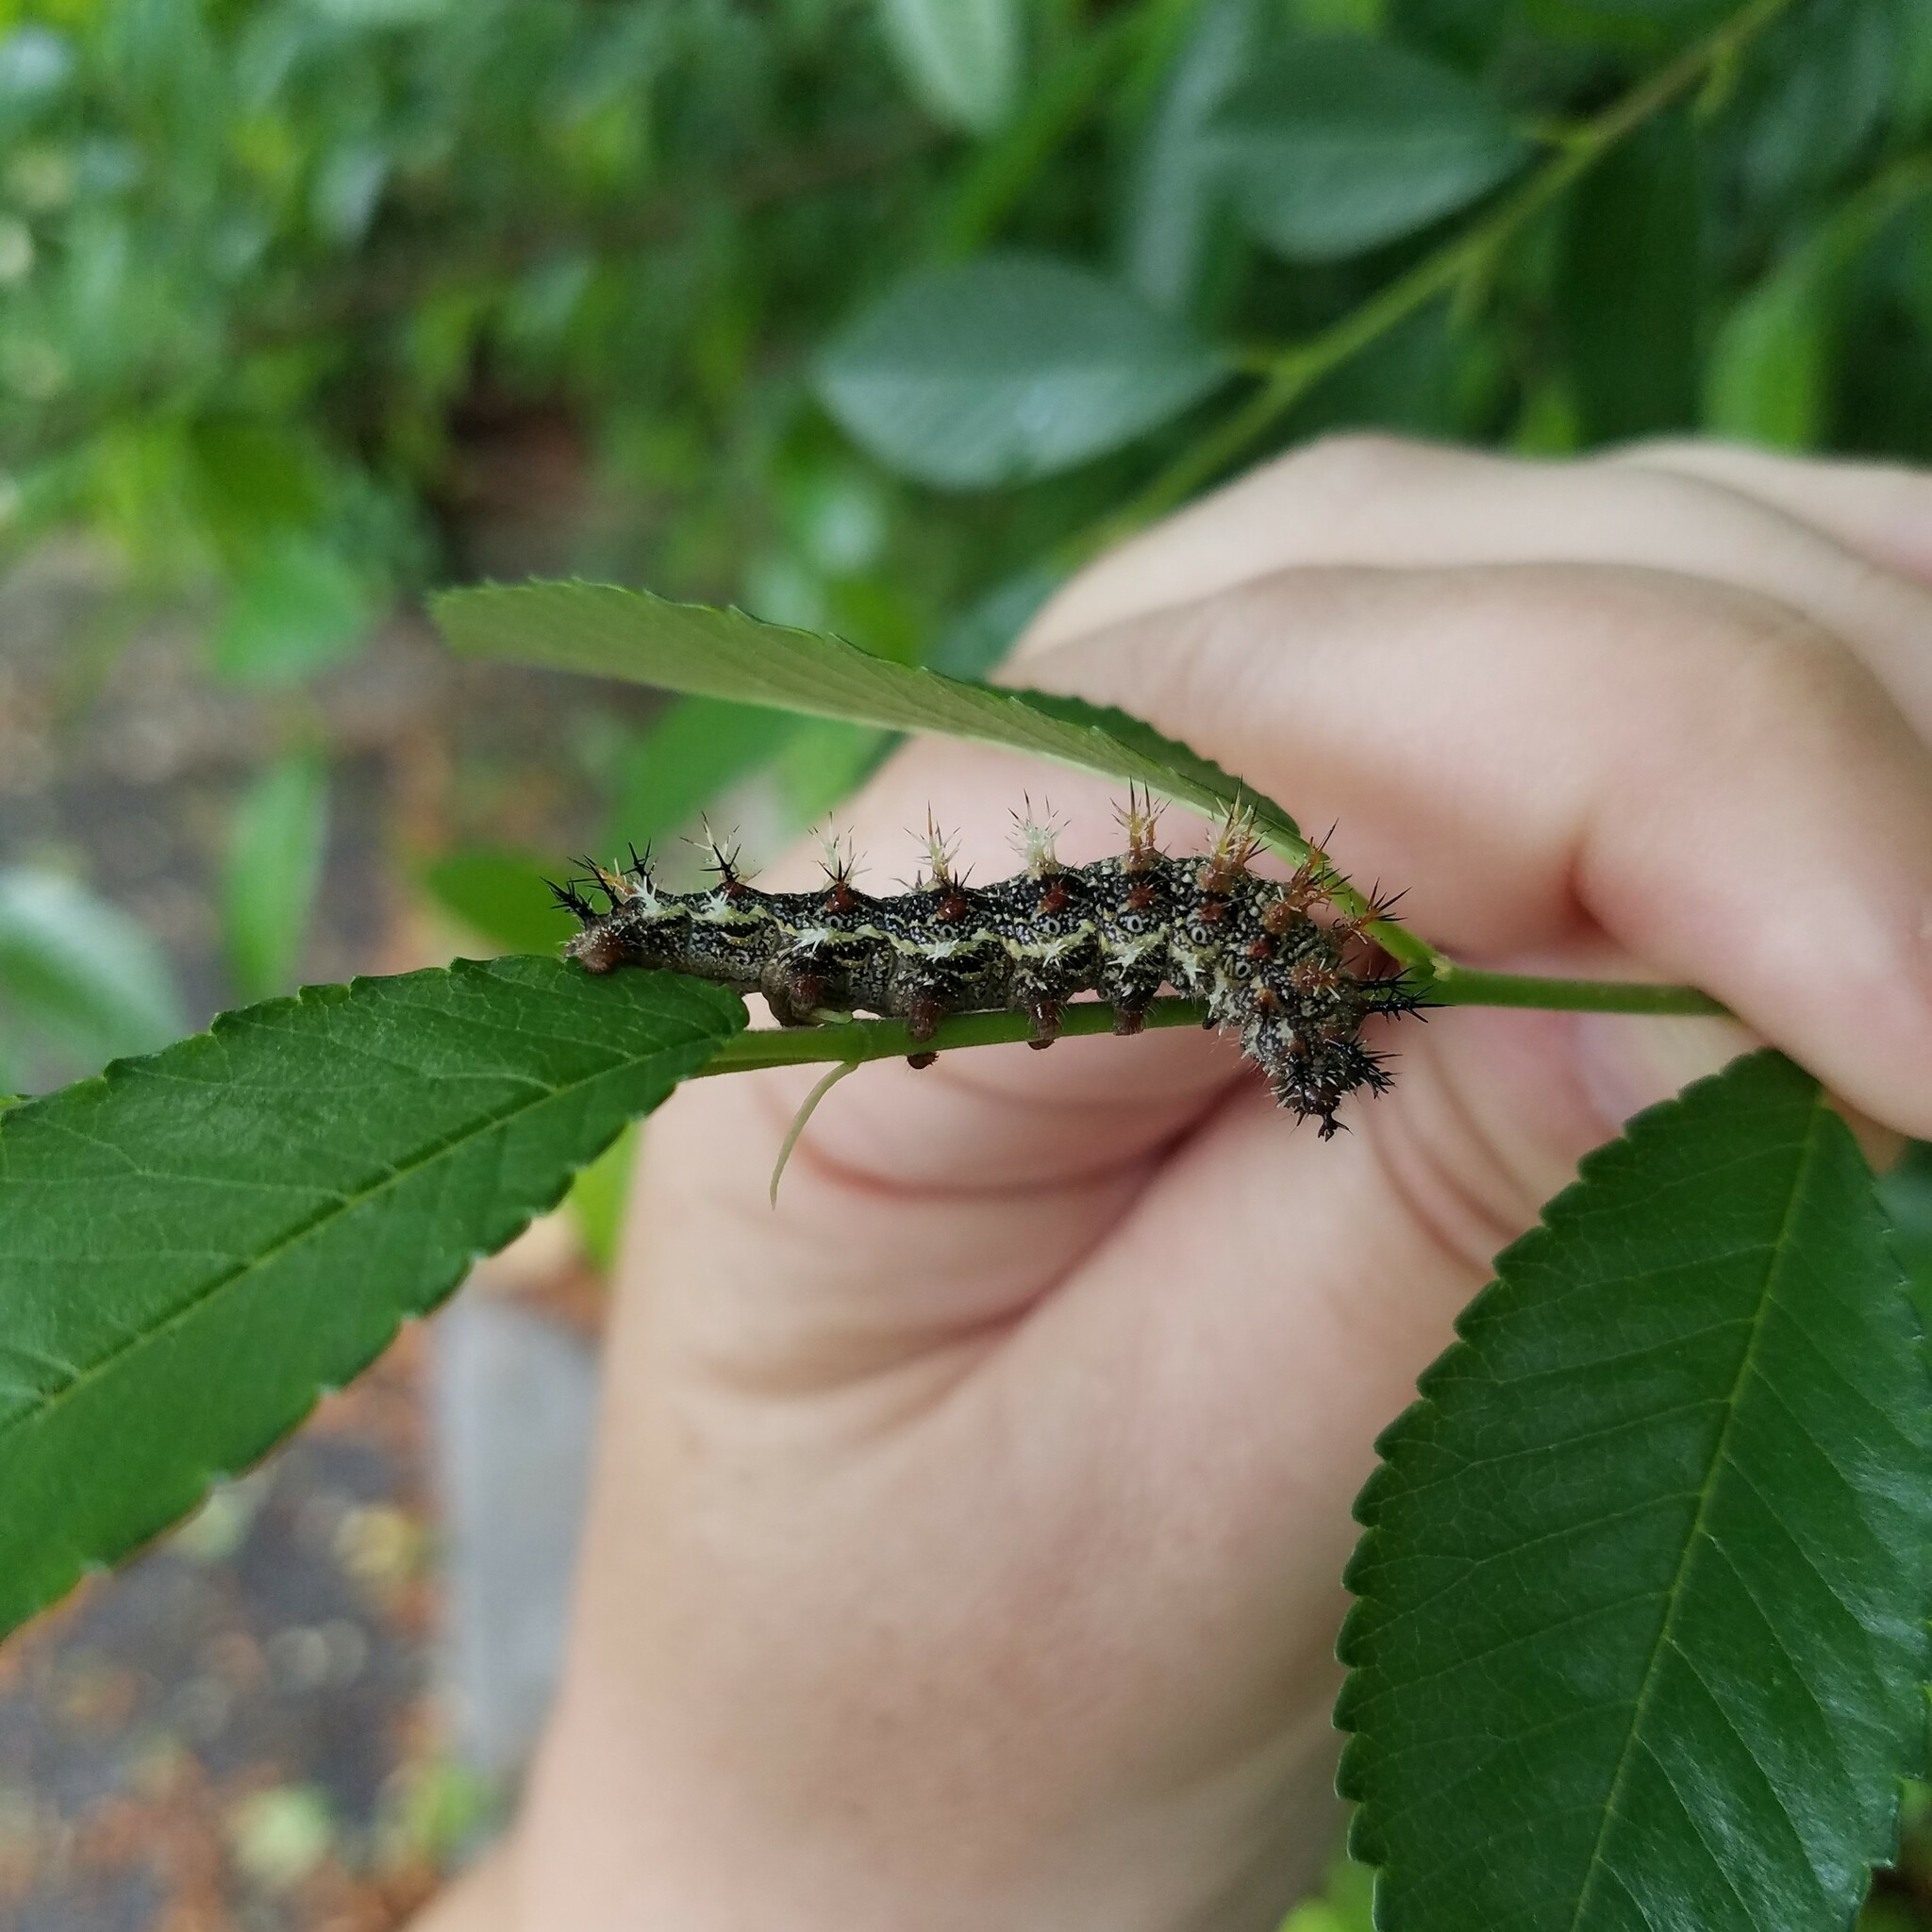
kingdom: Animalia
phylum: Arthropoda
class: Insecta
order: Lepidoptera
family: Nymphalidae
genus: Polygonia
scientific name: Polygonia interrogationis
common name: Question mark
